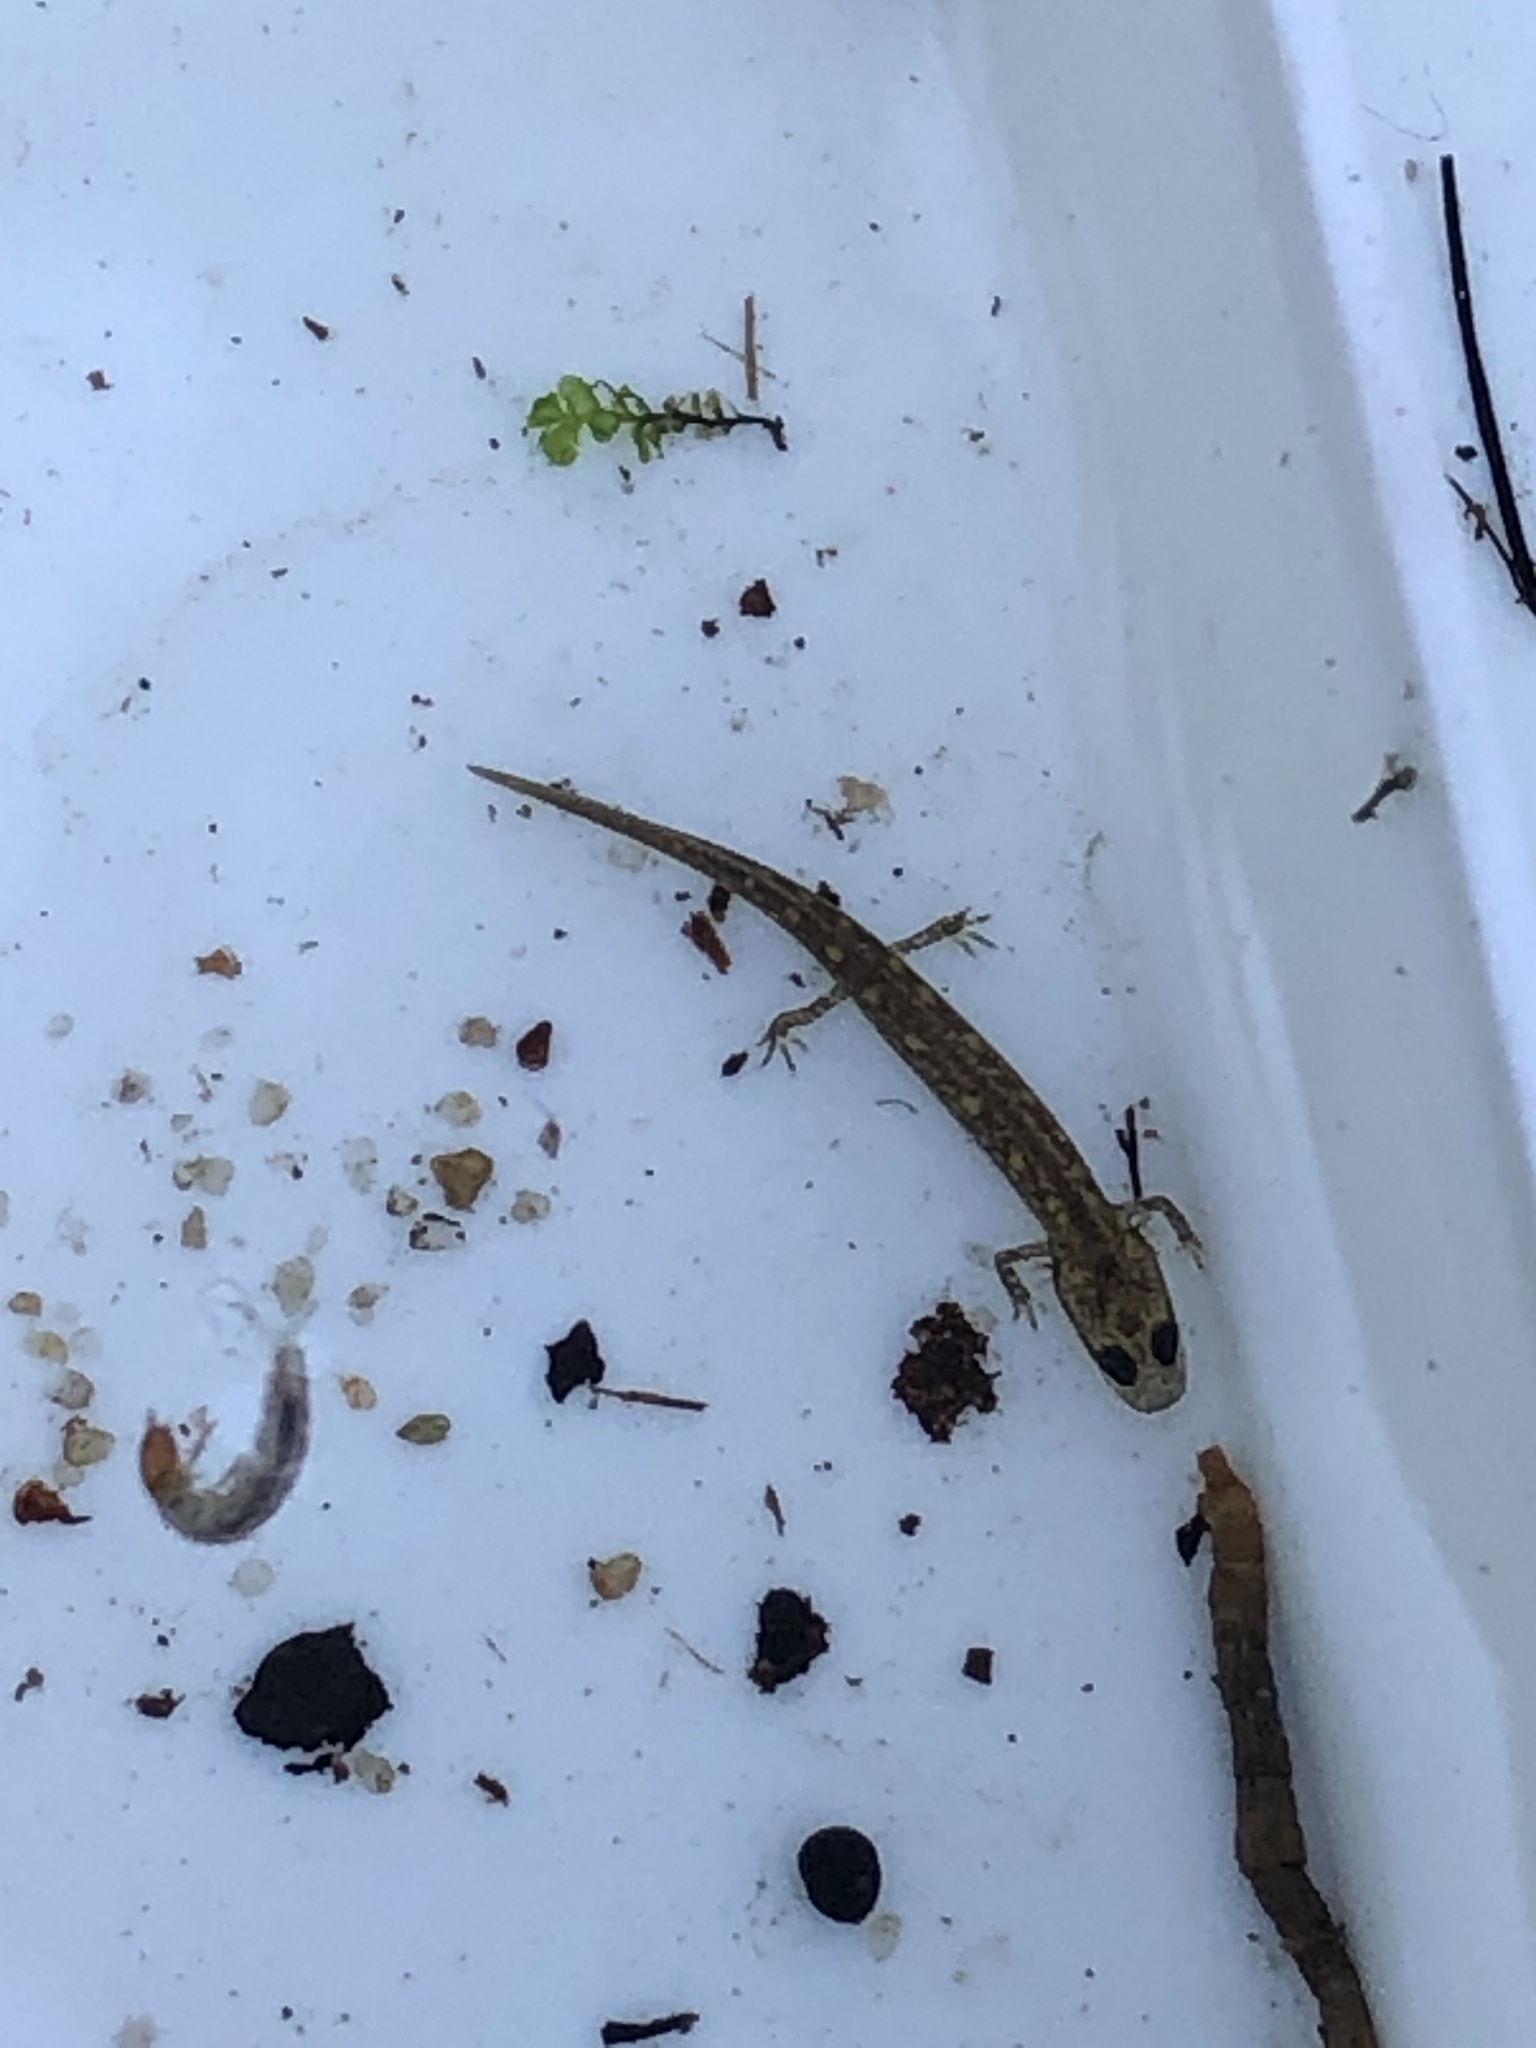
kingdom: Animalia
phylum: Chordata
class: Amphibia
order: Caudata
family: Plethodontidae
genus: Eurycea
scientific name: Eurycea bislineata
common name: Northern two-lined salamander
